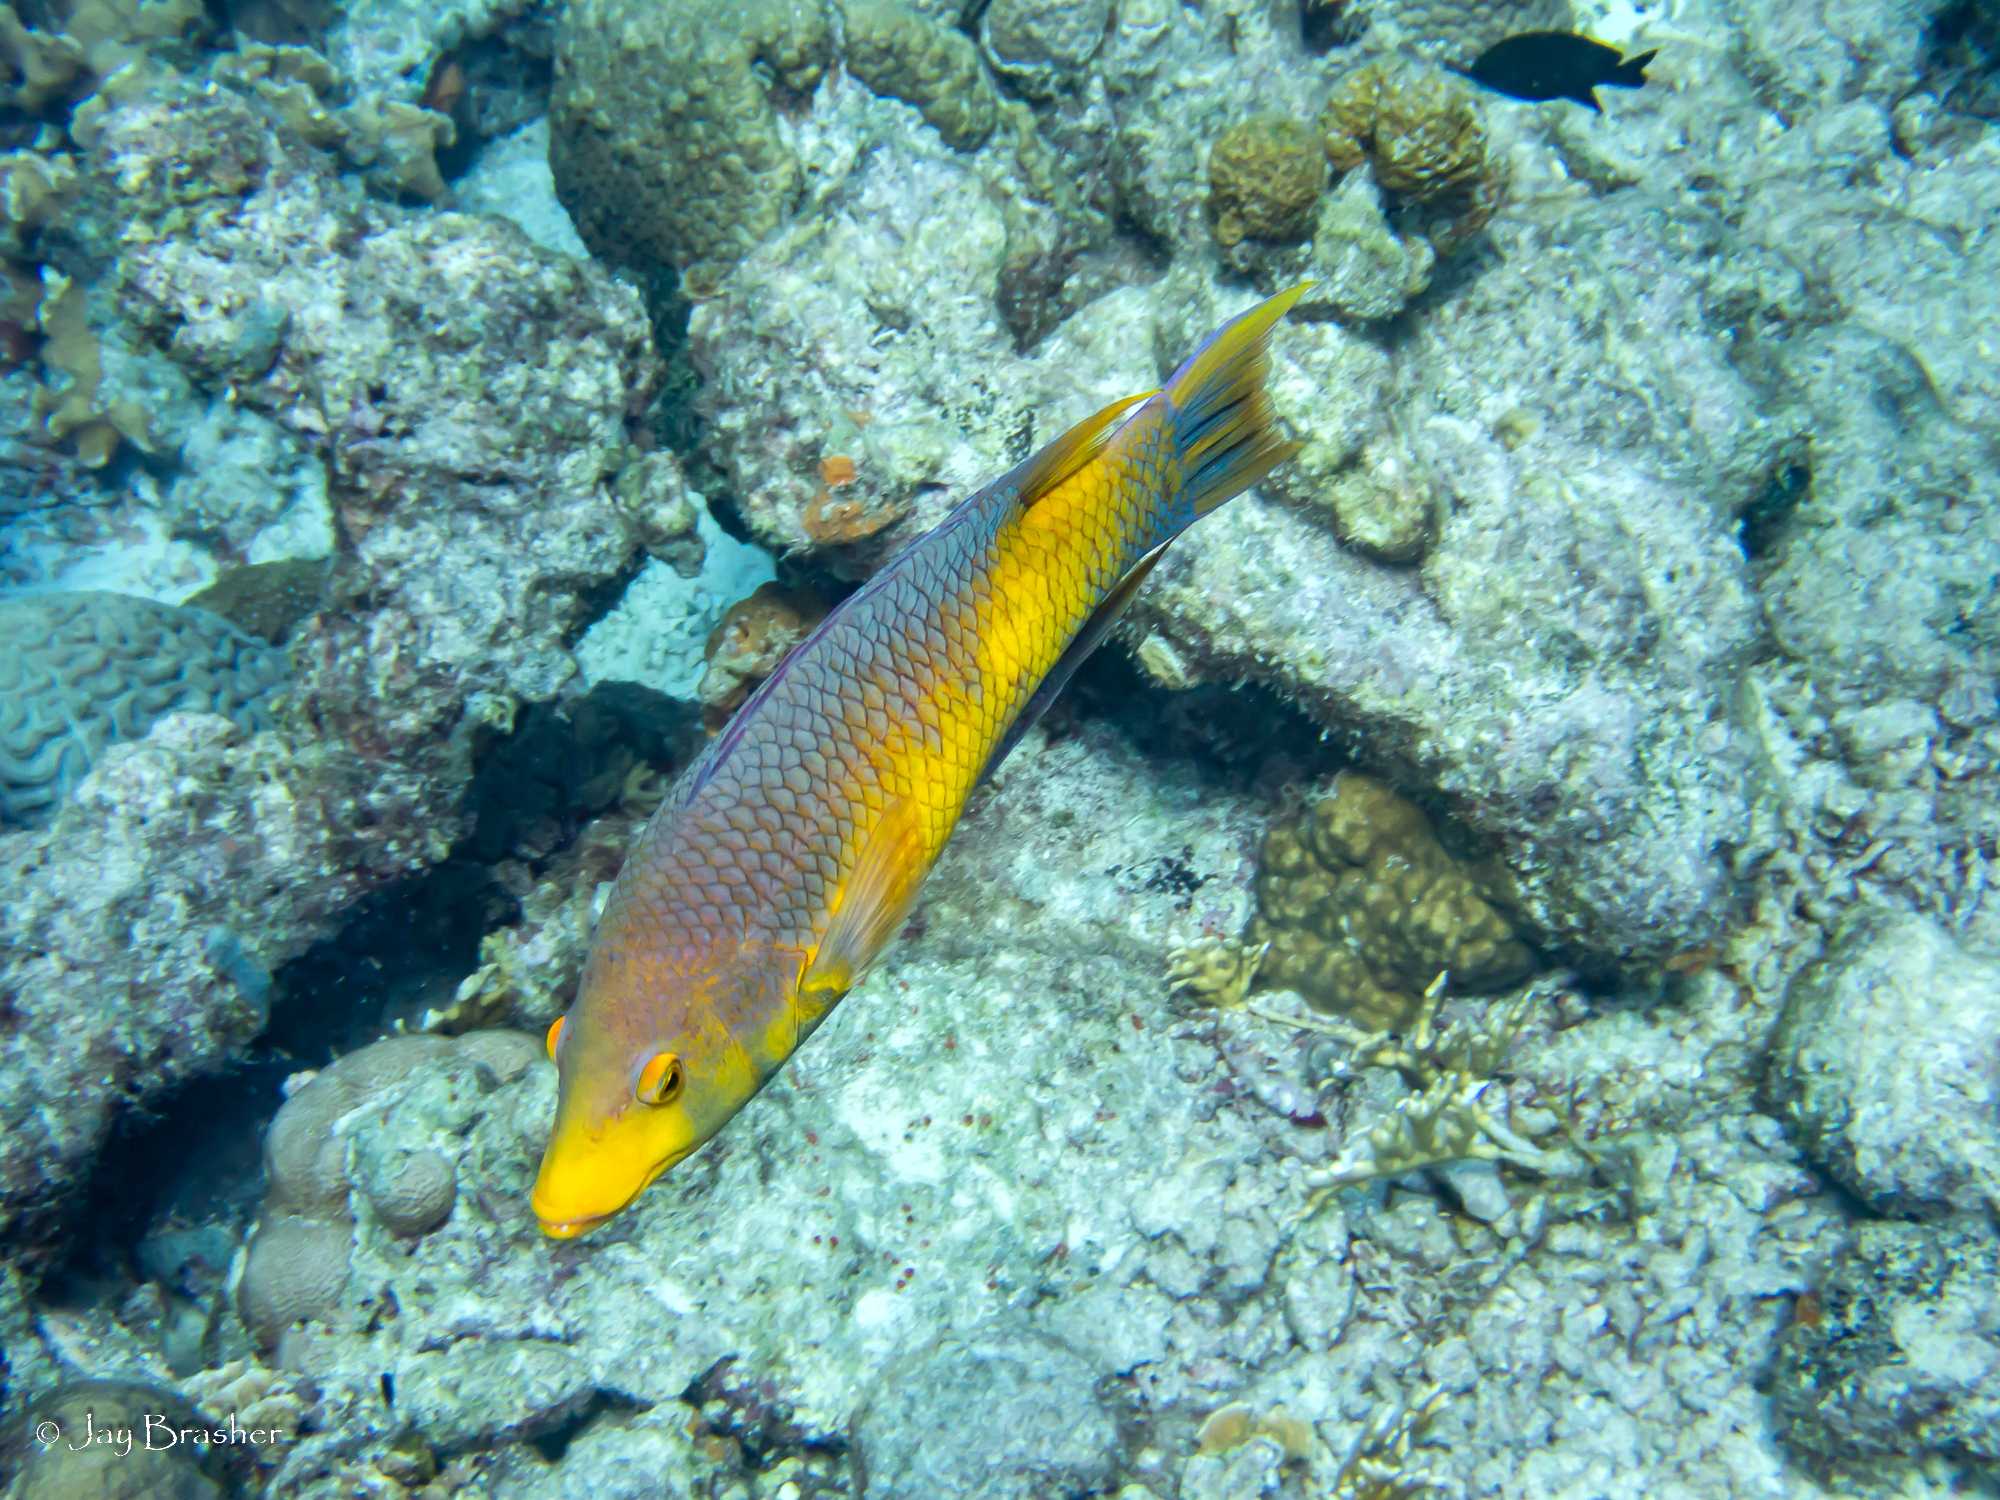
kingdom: Animalia
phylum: Chordata
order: Perciformes
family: Labridae
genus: Bodianus
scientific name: Bodianus rufus
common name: Spanish hogfish
